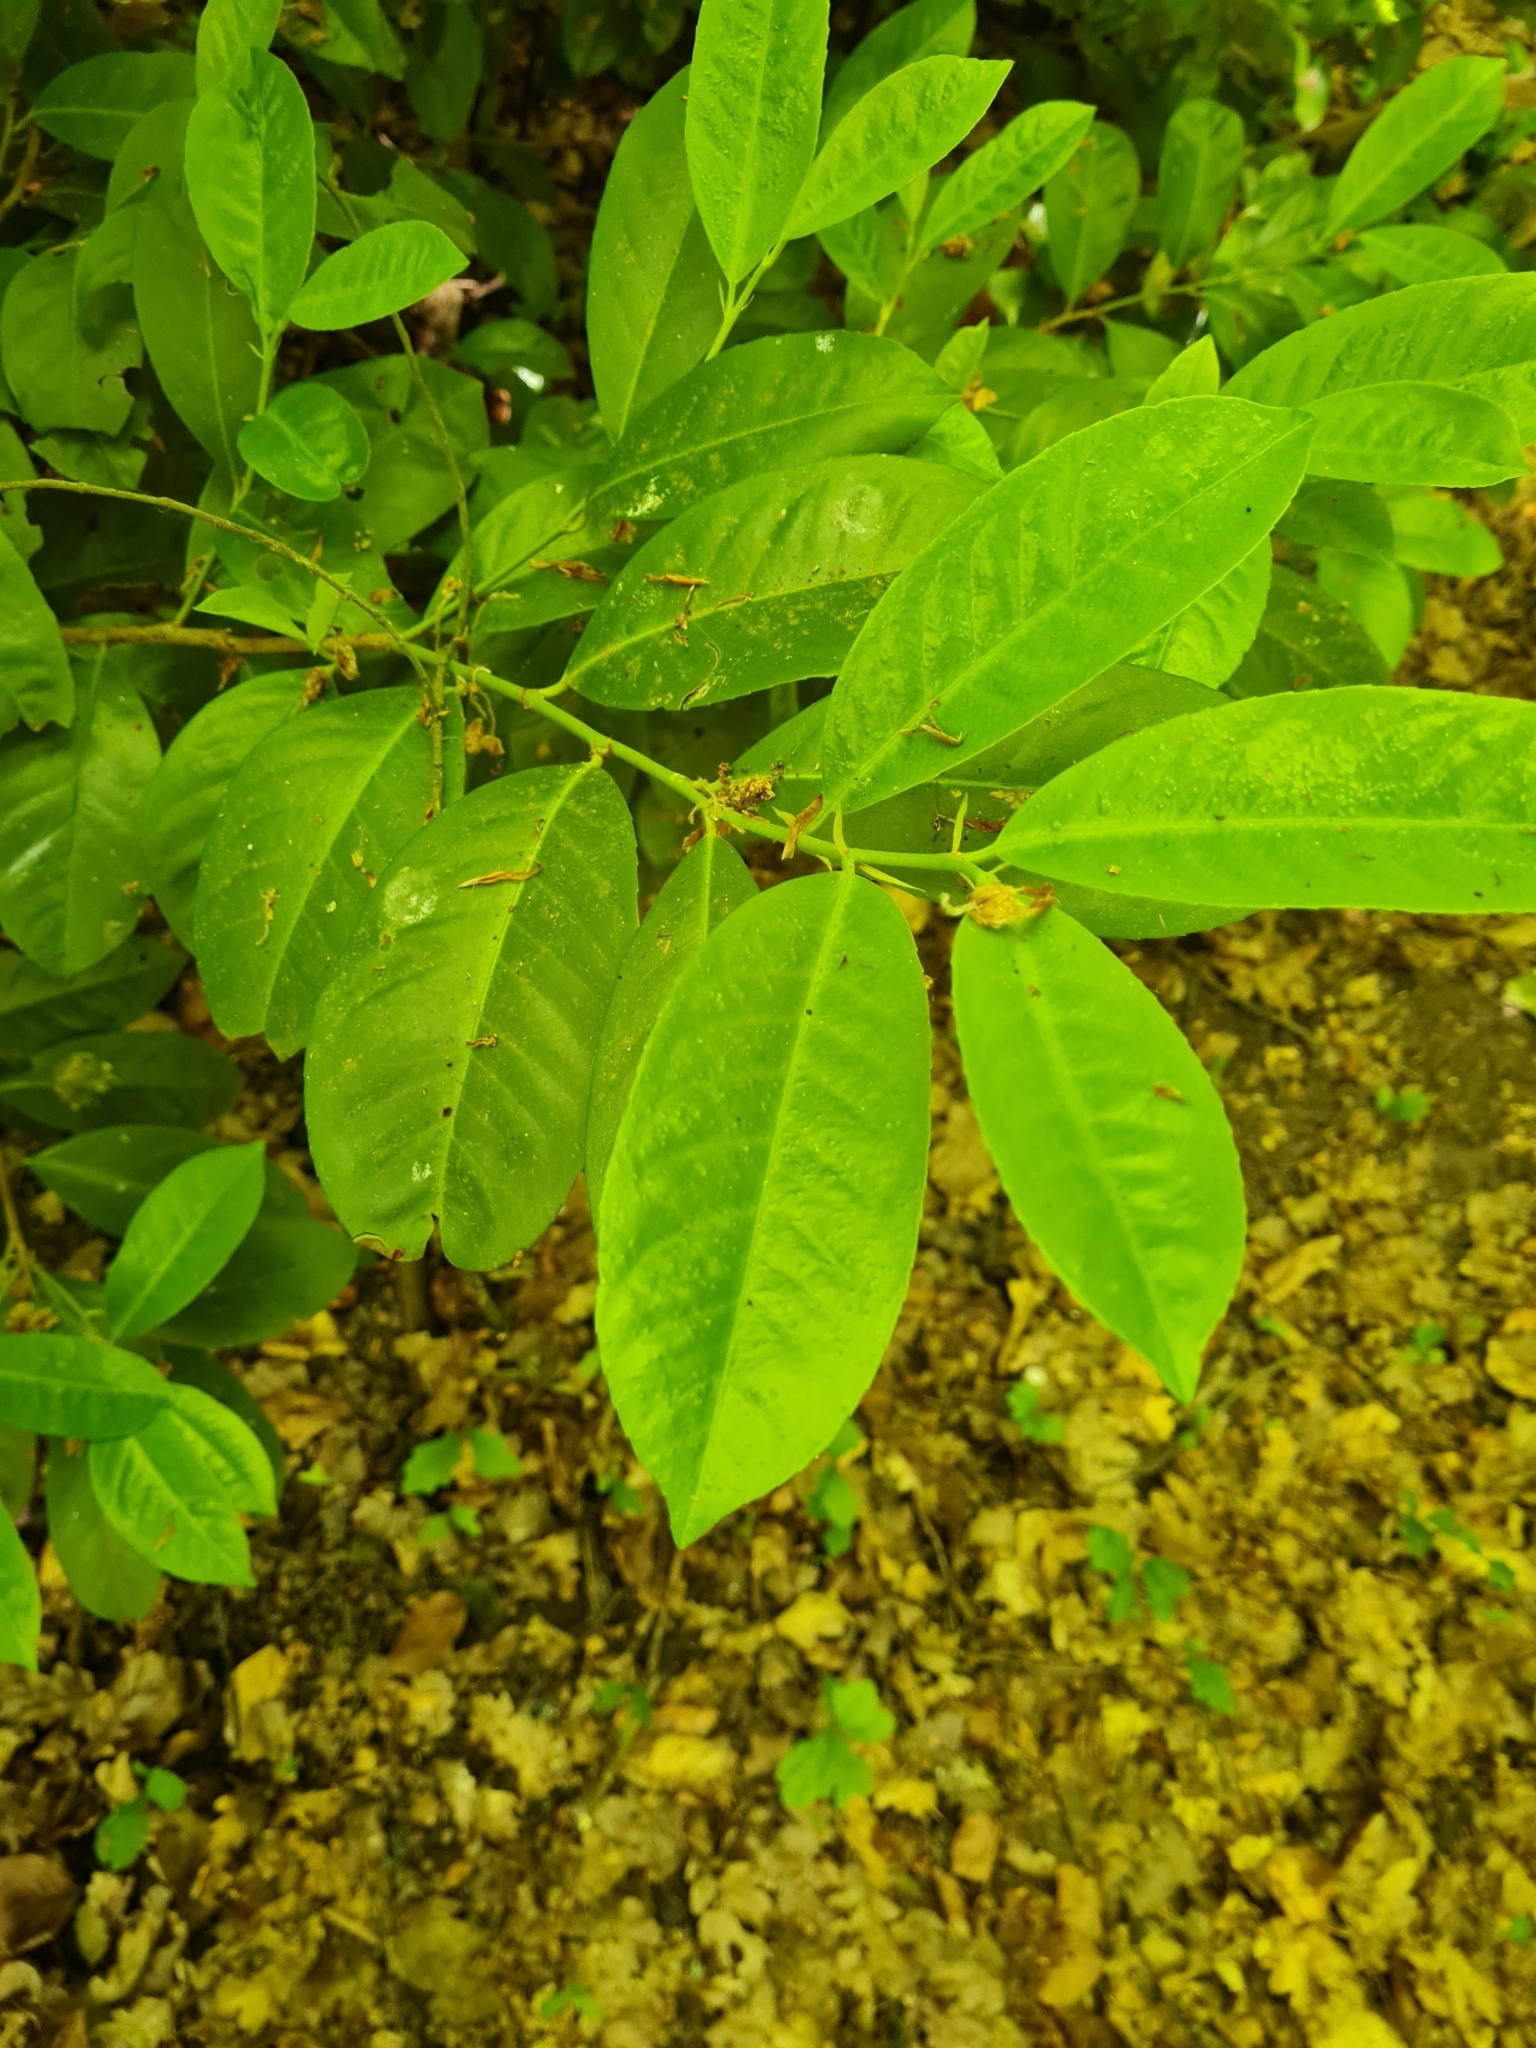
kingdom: Plantae
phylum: Tracheophyta
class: Magnoliopsida
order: Rosales
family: Rosaceae
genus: Prunus
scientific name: Prunus laurocerasus
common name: Cherry laurel
